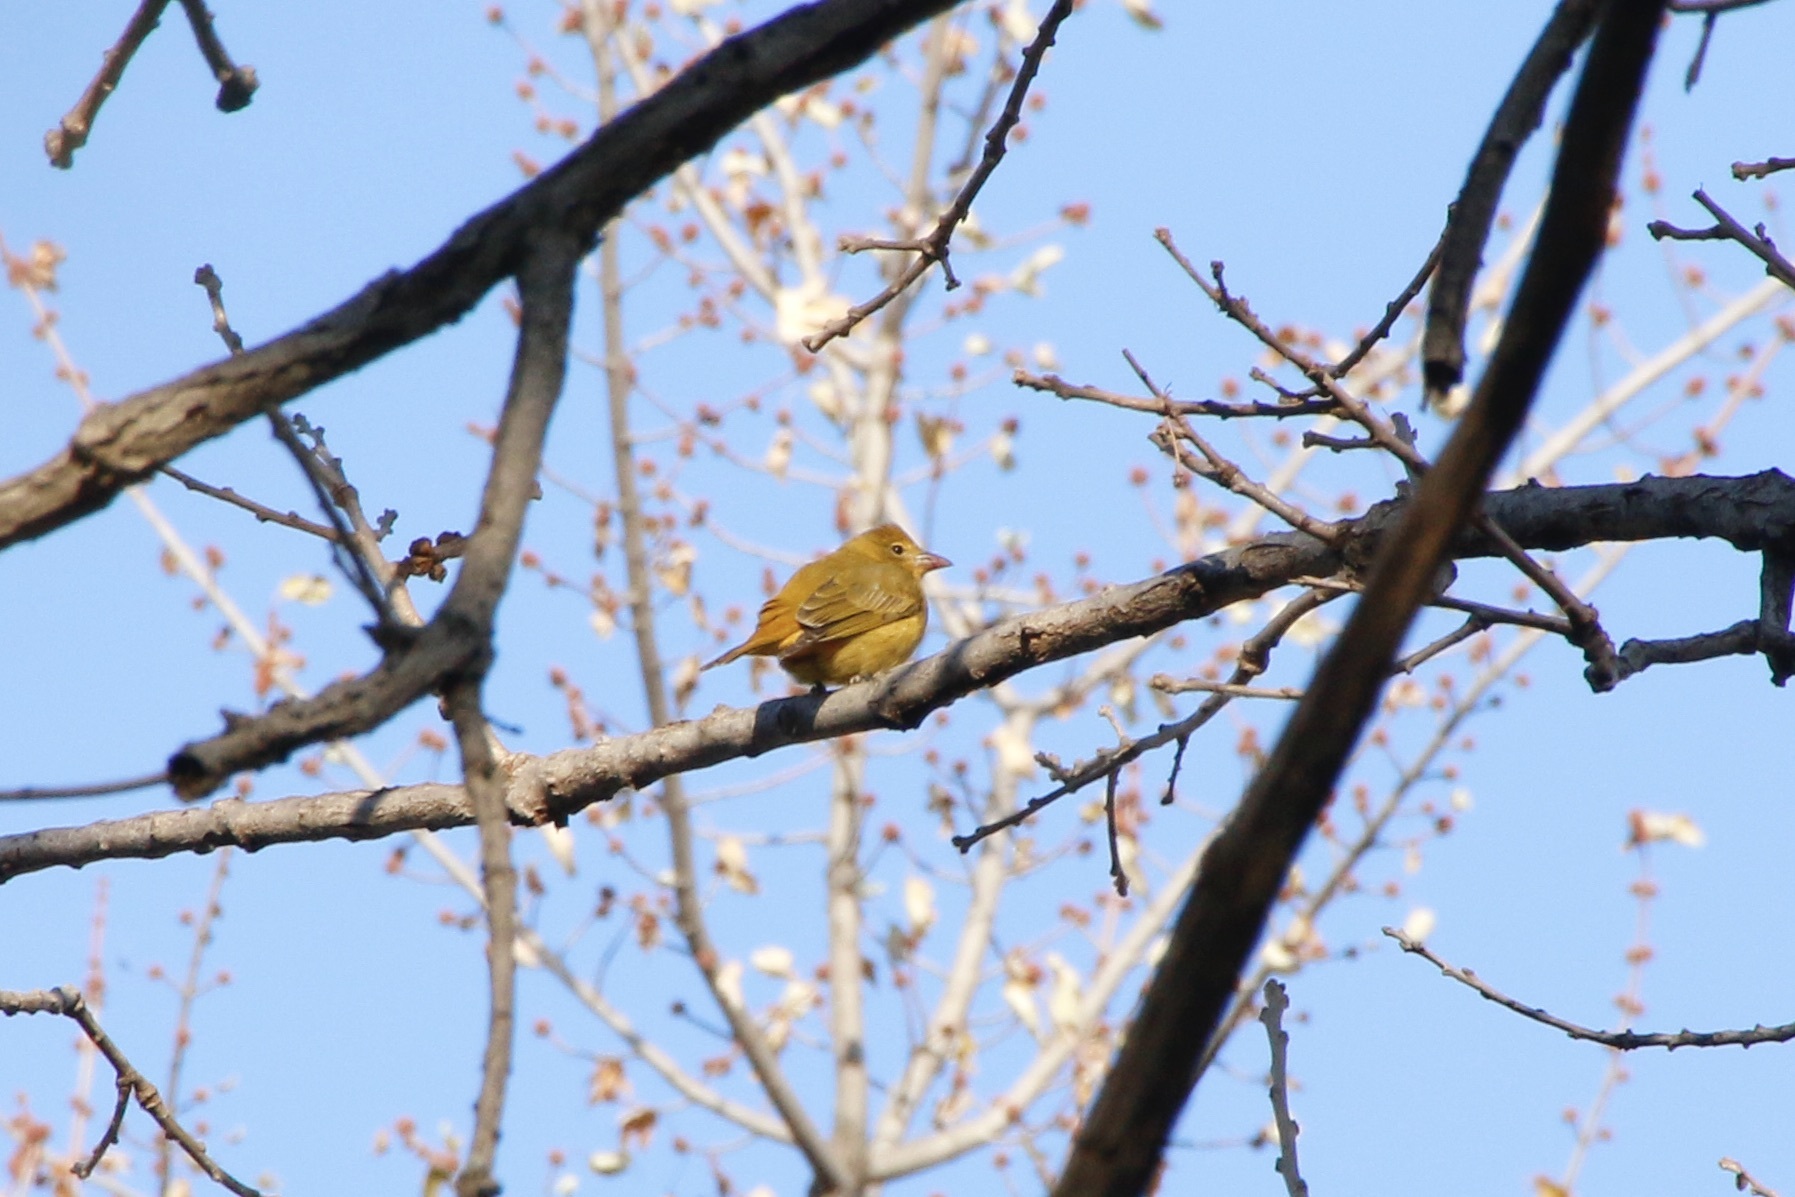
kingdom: Animalia
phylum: Chordata
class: Aves
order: Passeriformes
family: Cardinalidae
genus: Piranga
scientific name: Piranga rubra
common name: Summer tanager
